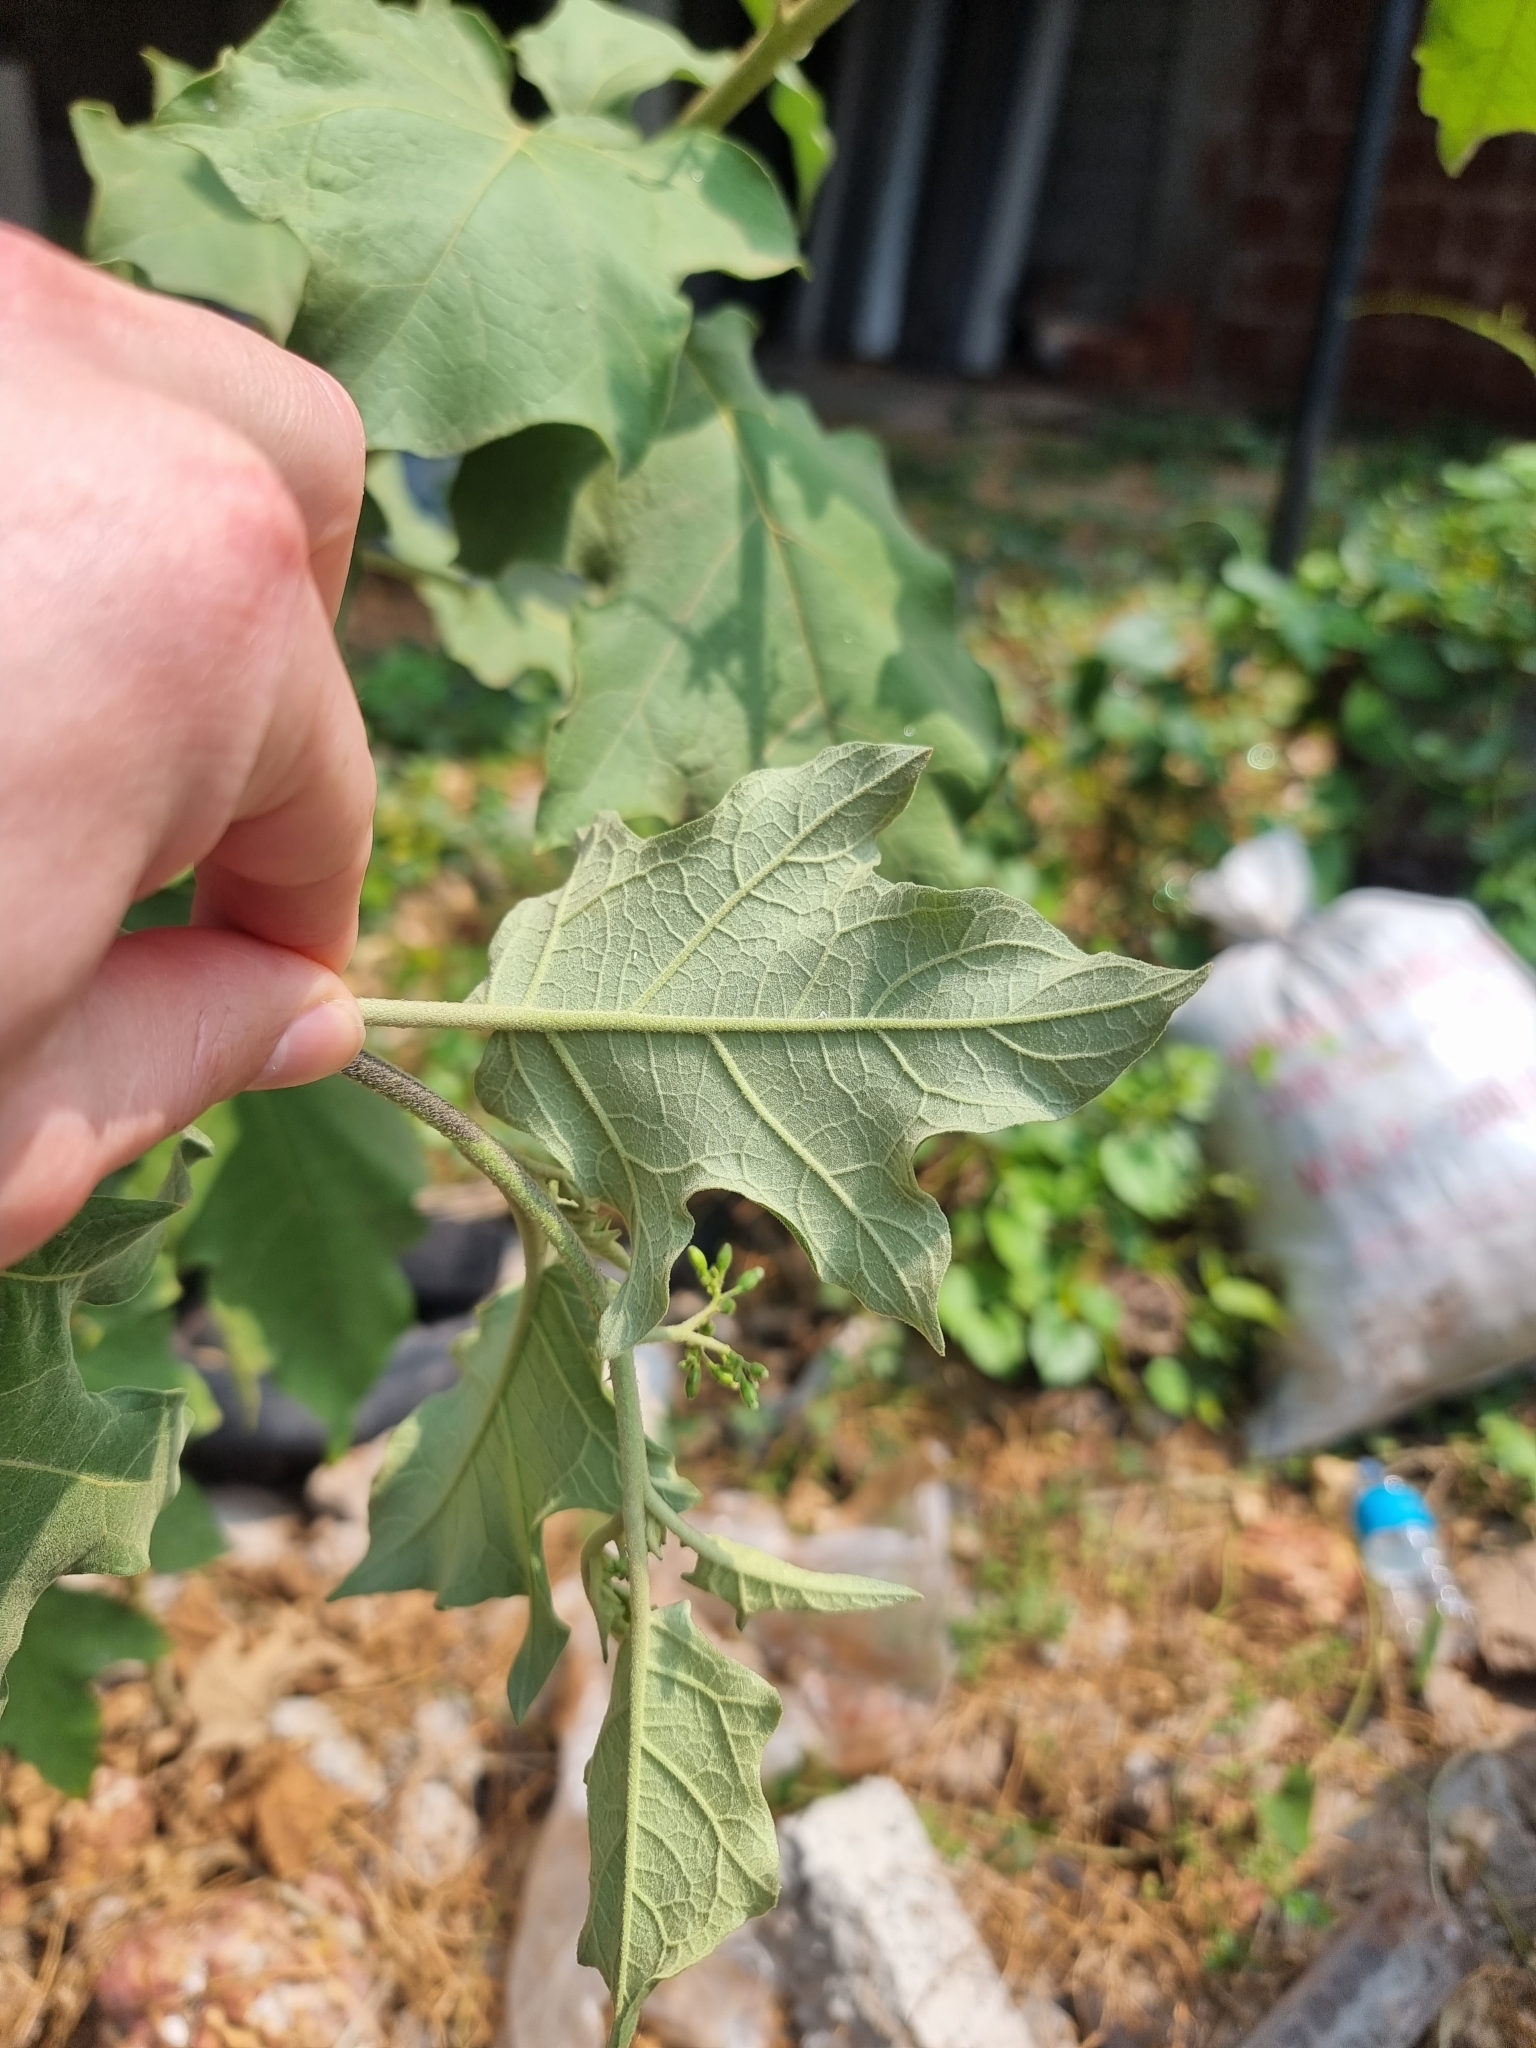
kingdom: Plantae
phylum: Tracheophyta
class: Magnoliopsida
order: Solanales
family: Solanaceae
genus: Solanum
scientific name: Solanum torvum
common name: Turkey berry
